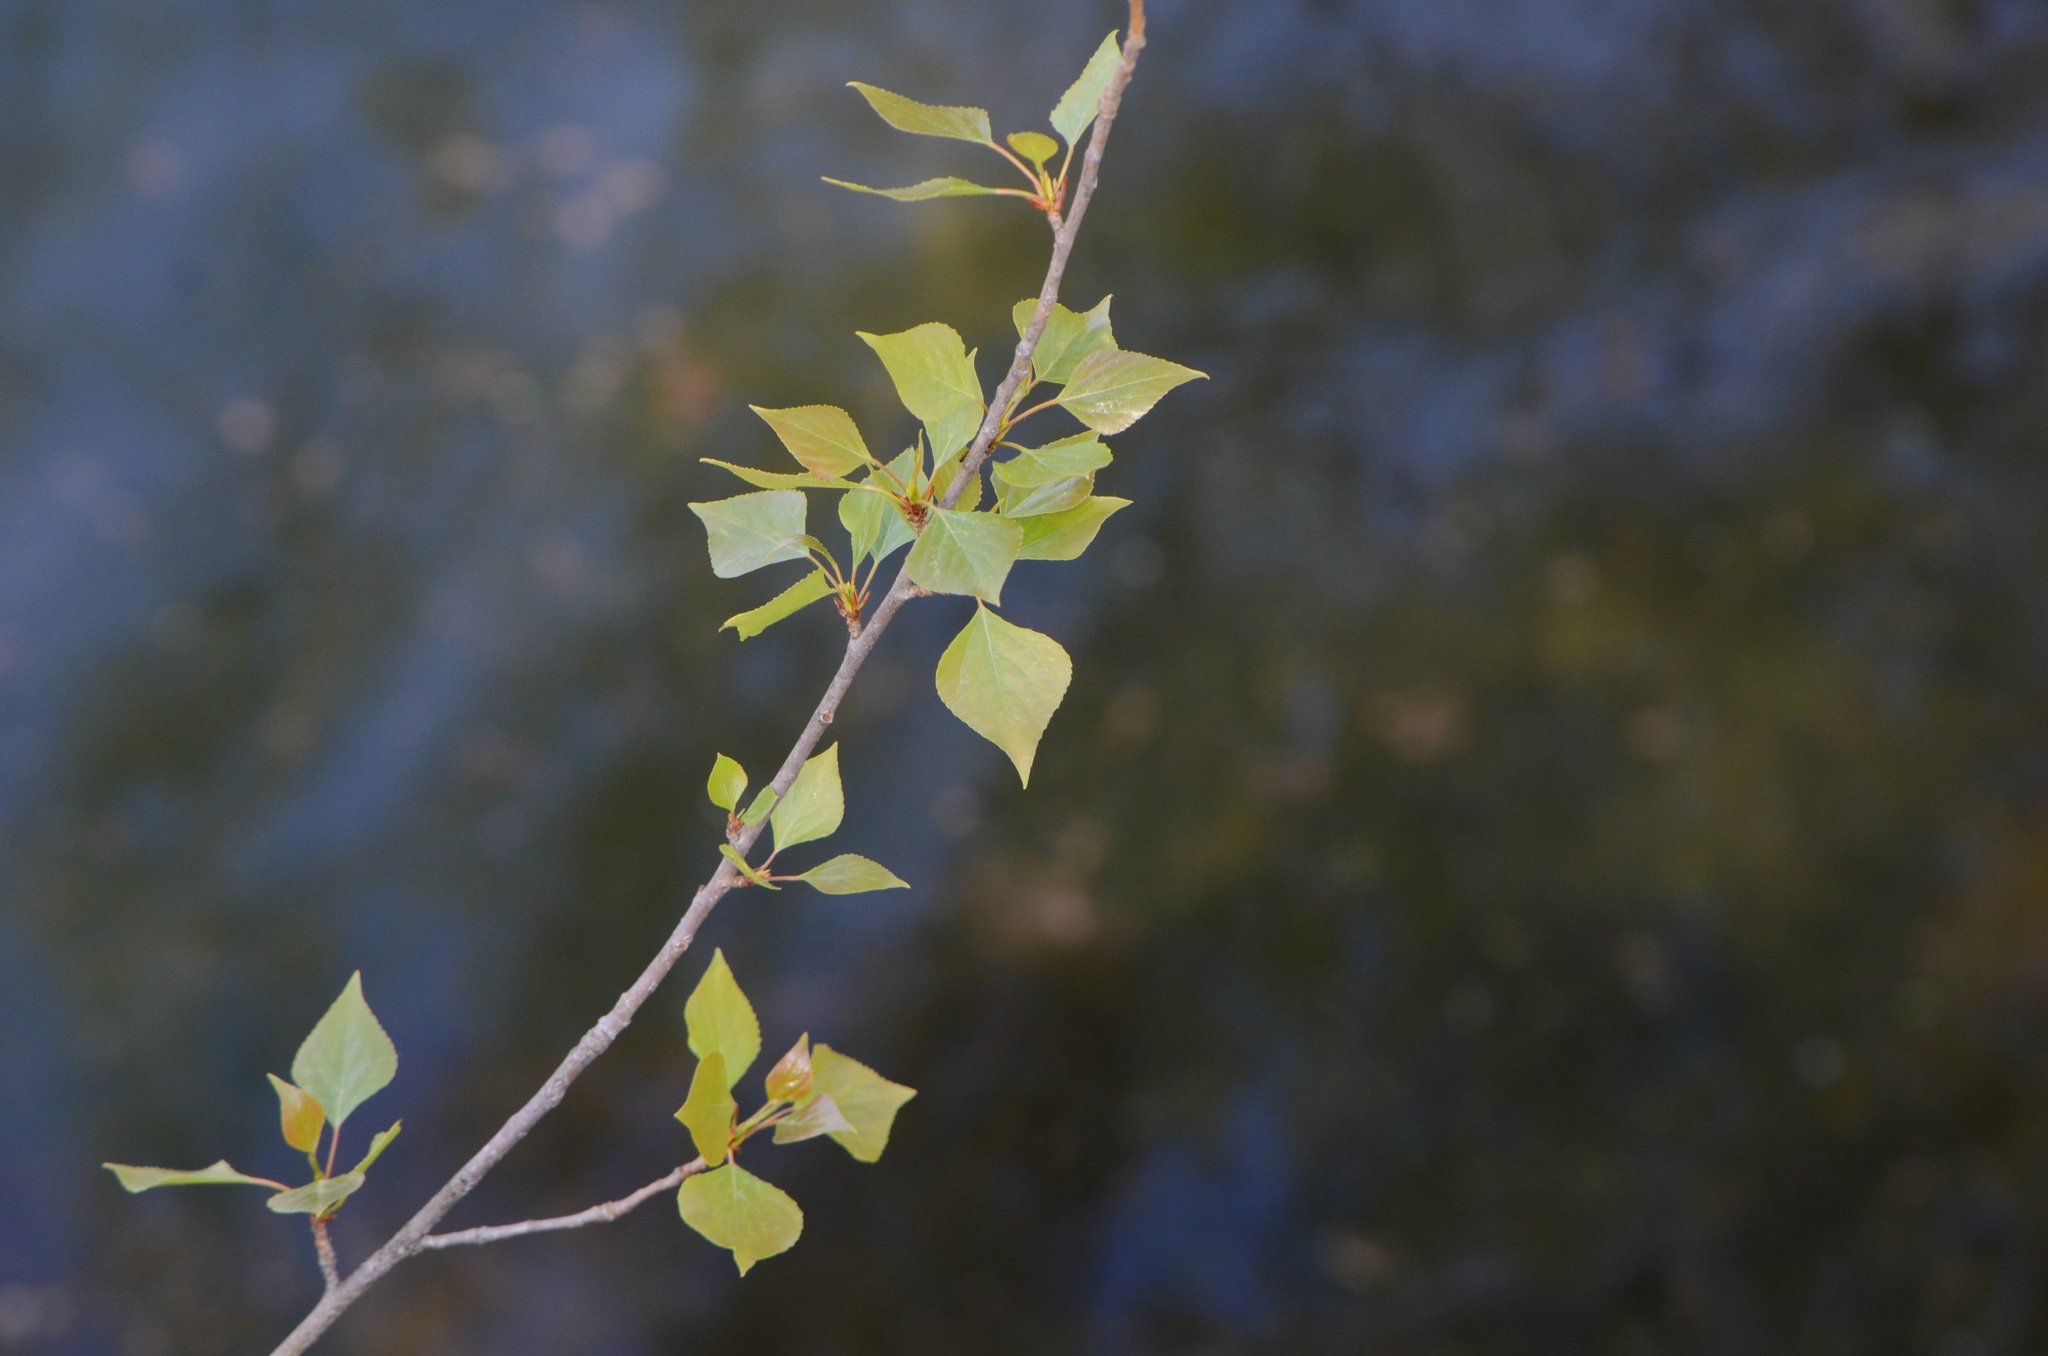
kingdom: Plantae
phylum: Tracheophyta
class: Magnoliopsida
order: Malpighiales
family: Salicaceae
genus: Populus
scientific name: Populus nigra
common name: Black poplar
